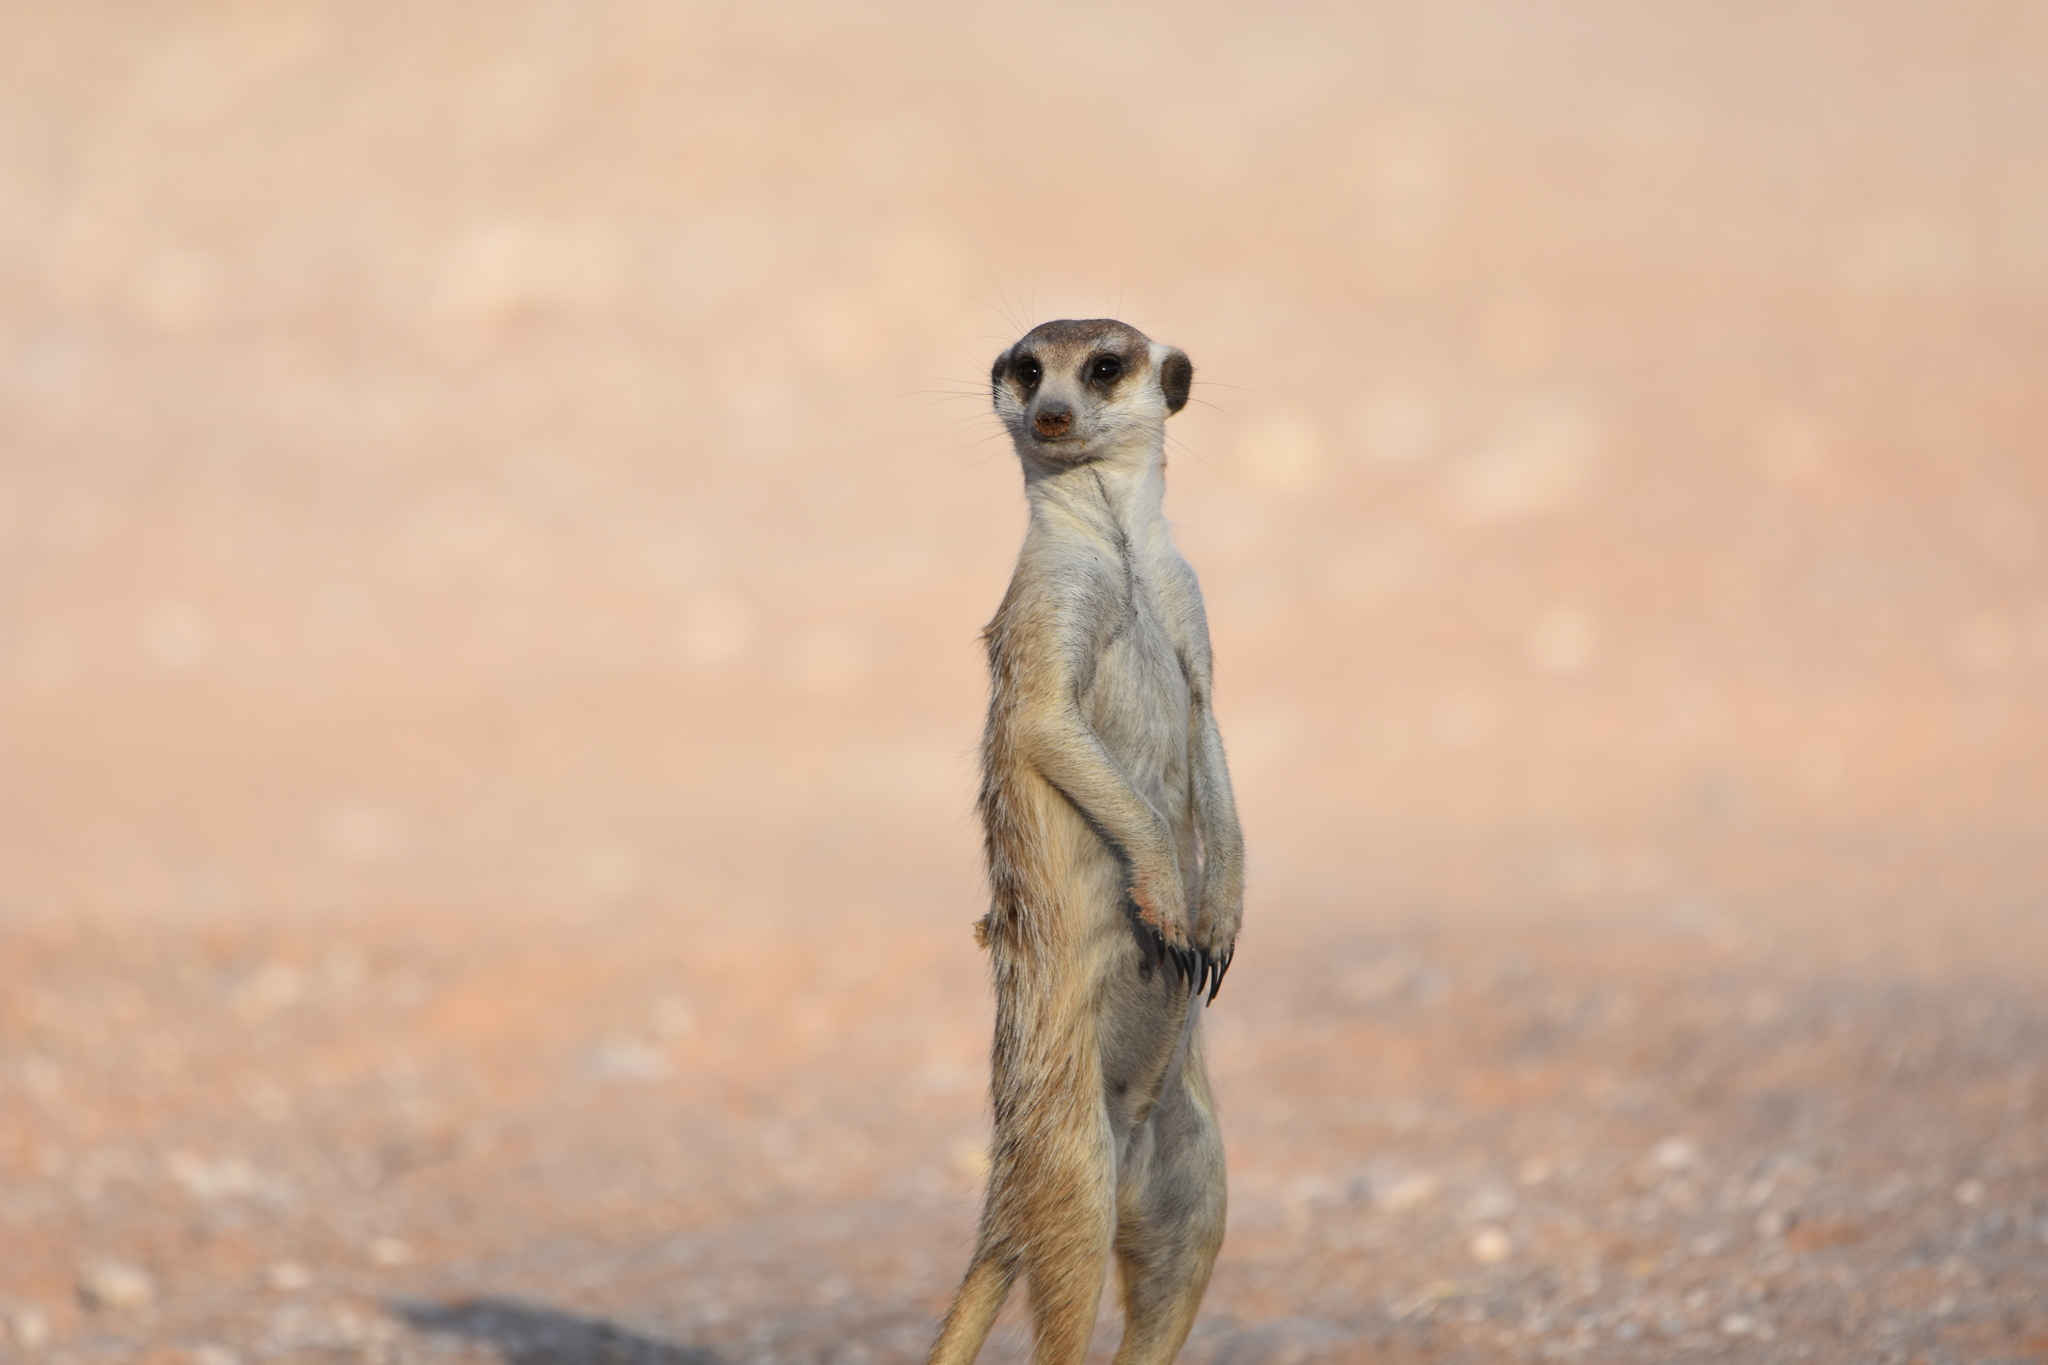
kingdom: Animalia
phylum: Chordata
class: Mammalia
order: Carnivora
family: Herpestidae
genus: Suricata
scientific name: Suricata suricatta
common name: Meerkat
